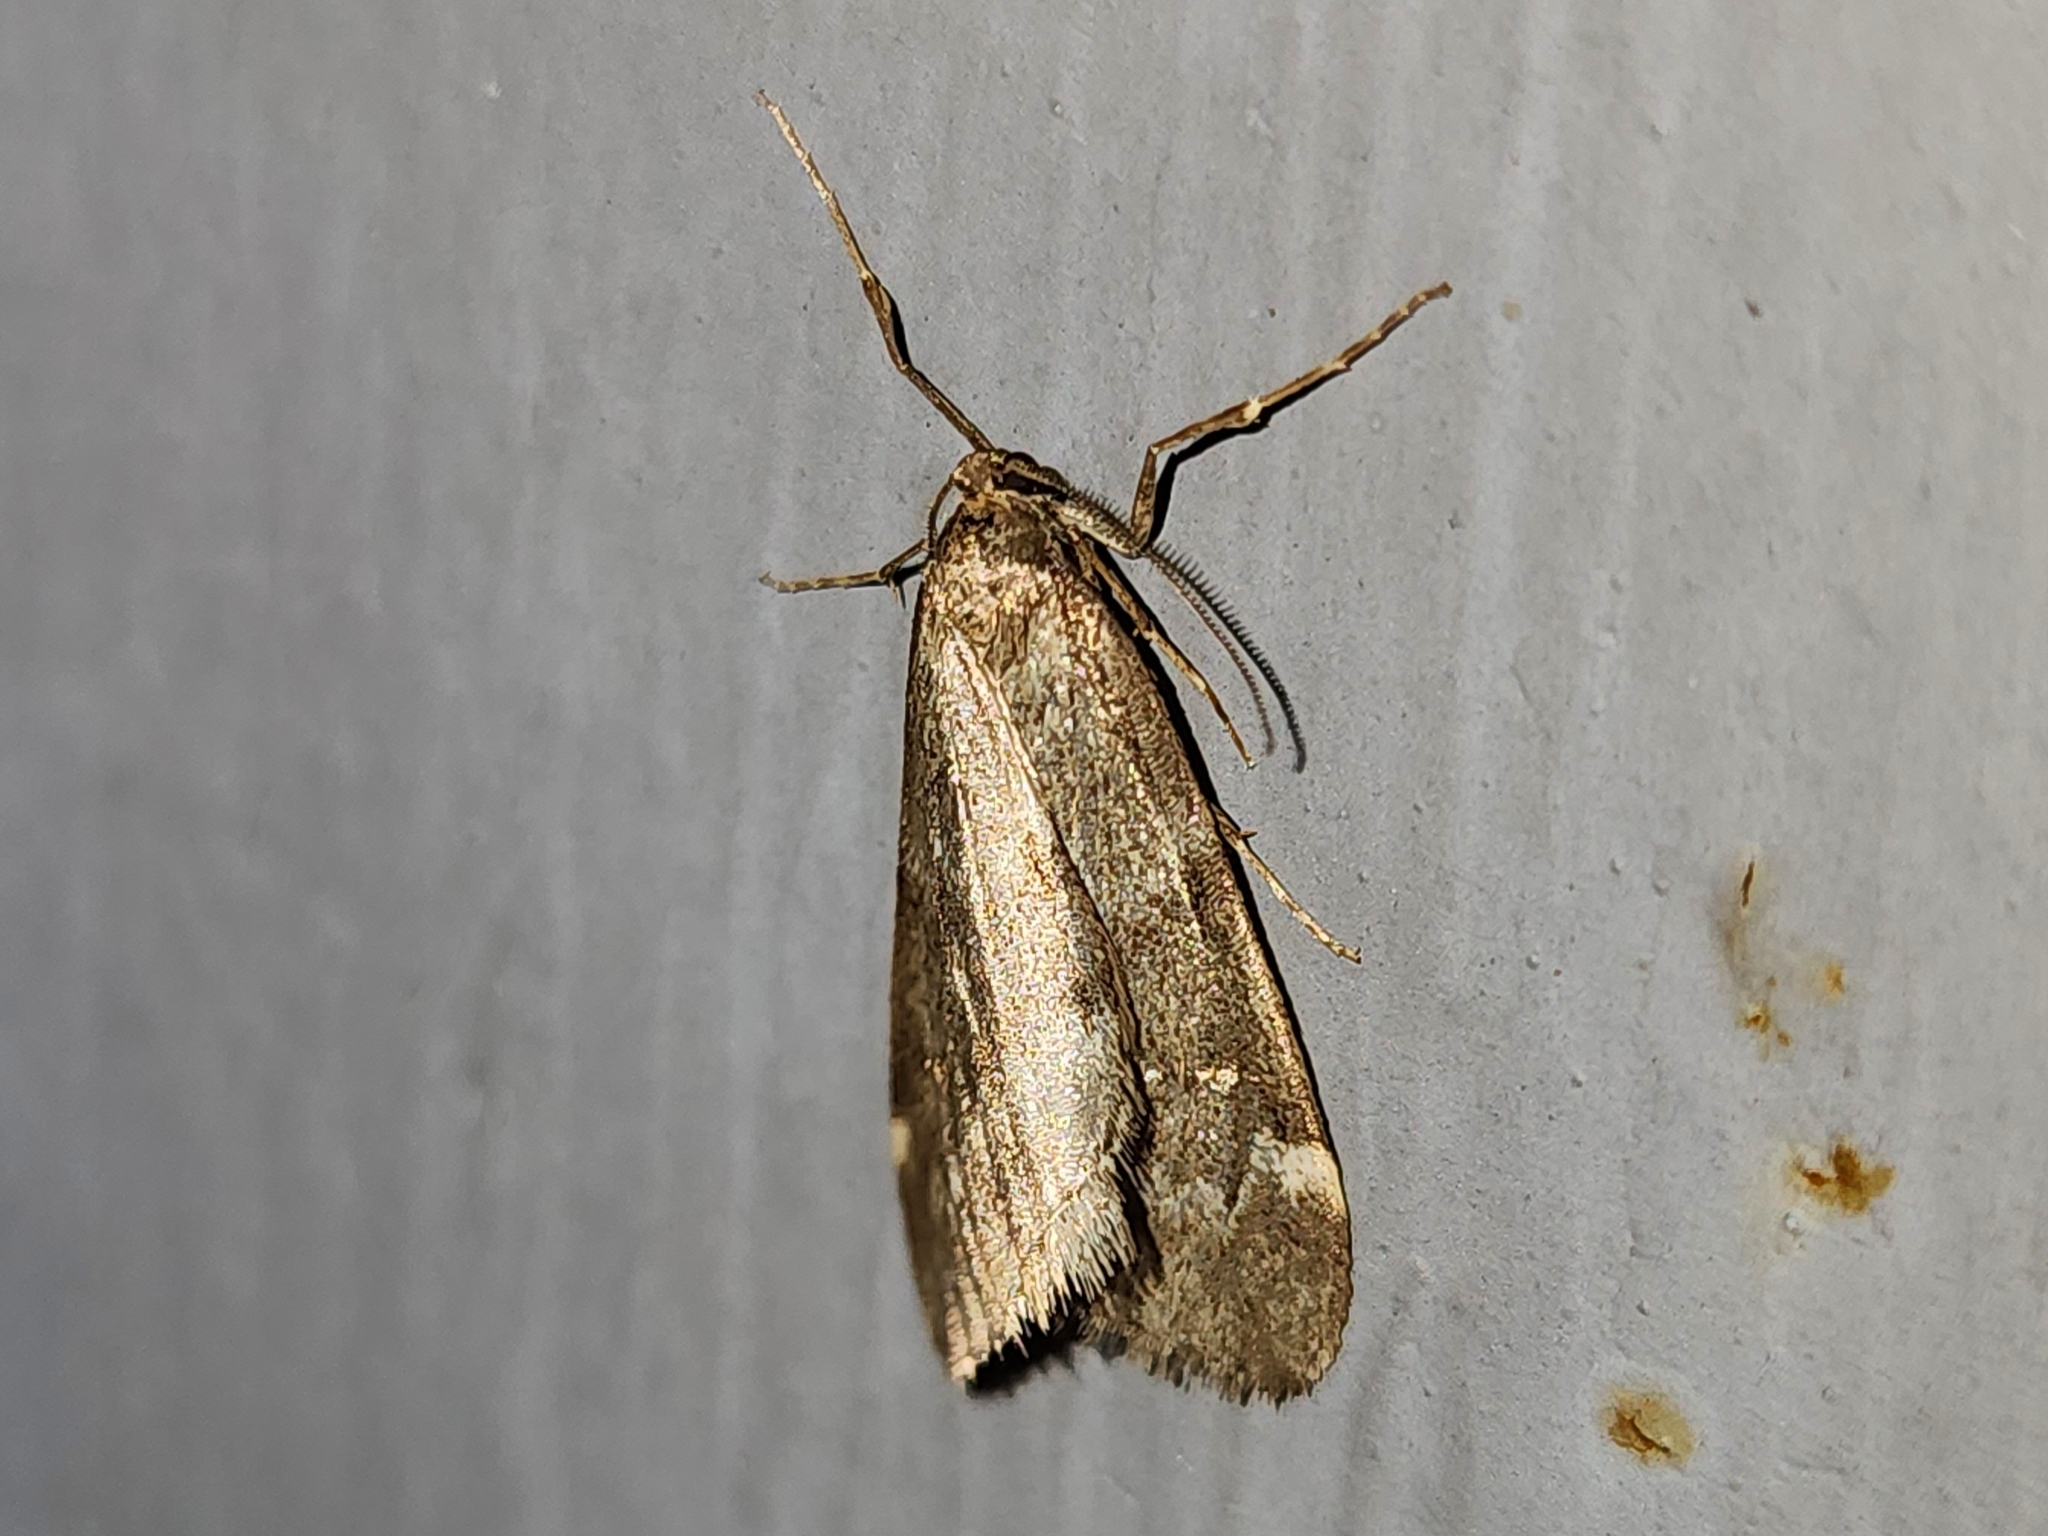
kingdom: Animalia
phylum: Arthropoda
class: Insecta
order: Lepidoptera
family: Geometridae
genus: Alsophila
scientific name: Alsophila pometaria
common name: Fall cankerworm
